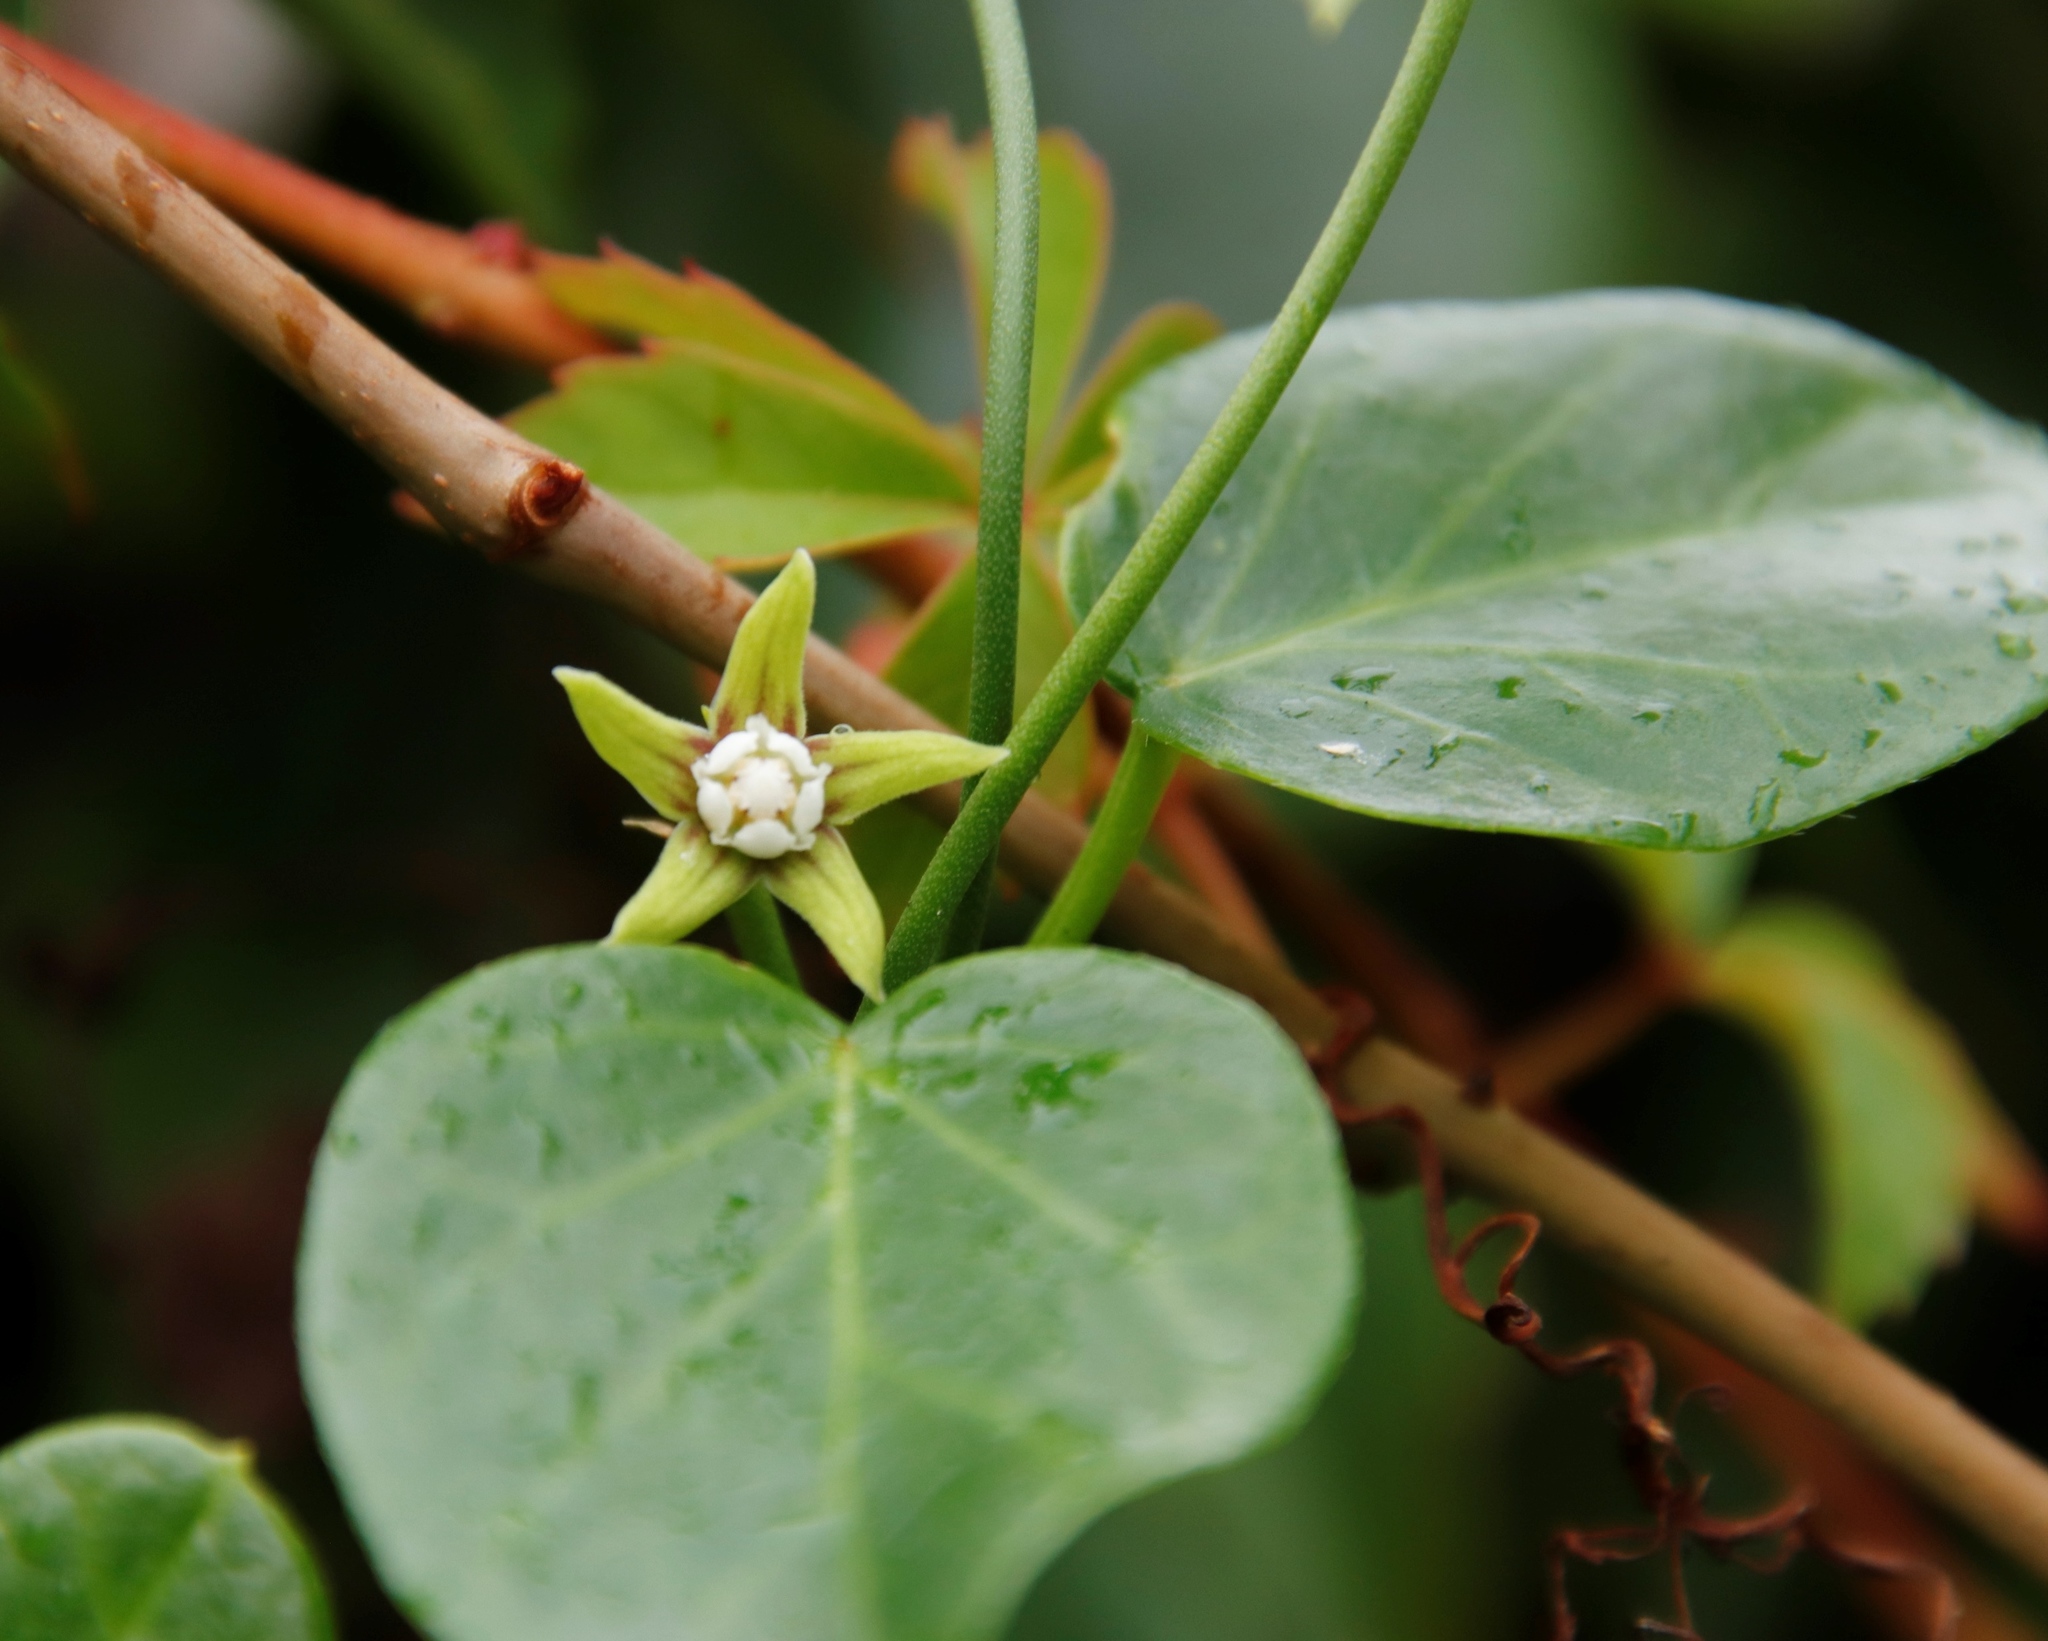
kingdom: Plantae
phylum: Tracheophyta
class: Magnoliopsida
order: Gentianales
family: Apocynaceae
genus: Cynanchum
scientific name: Cynanchum obtusifolium
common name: Monkey-rope
